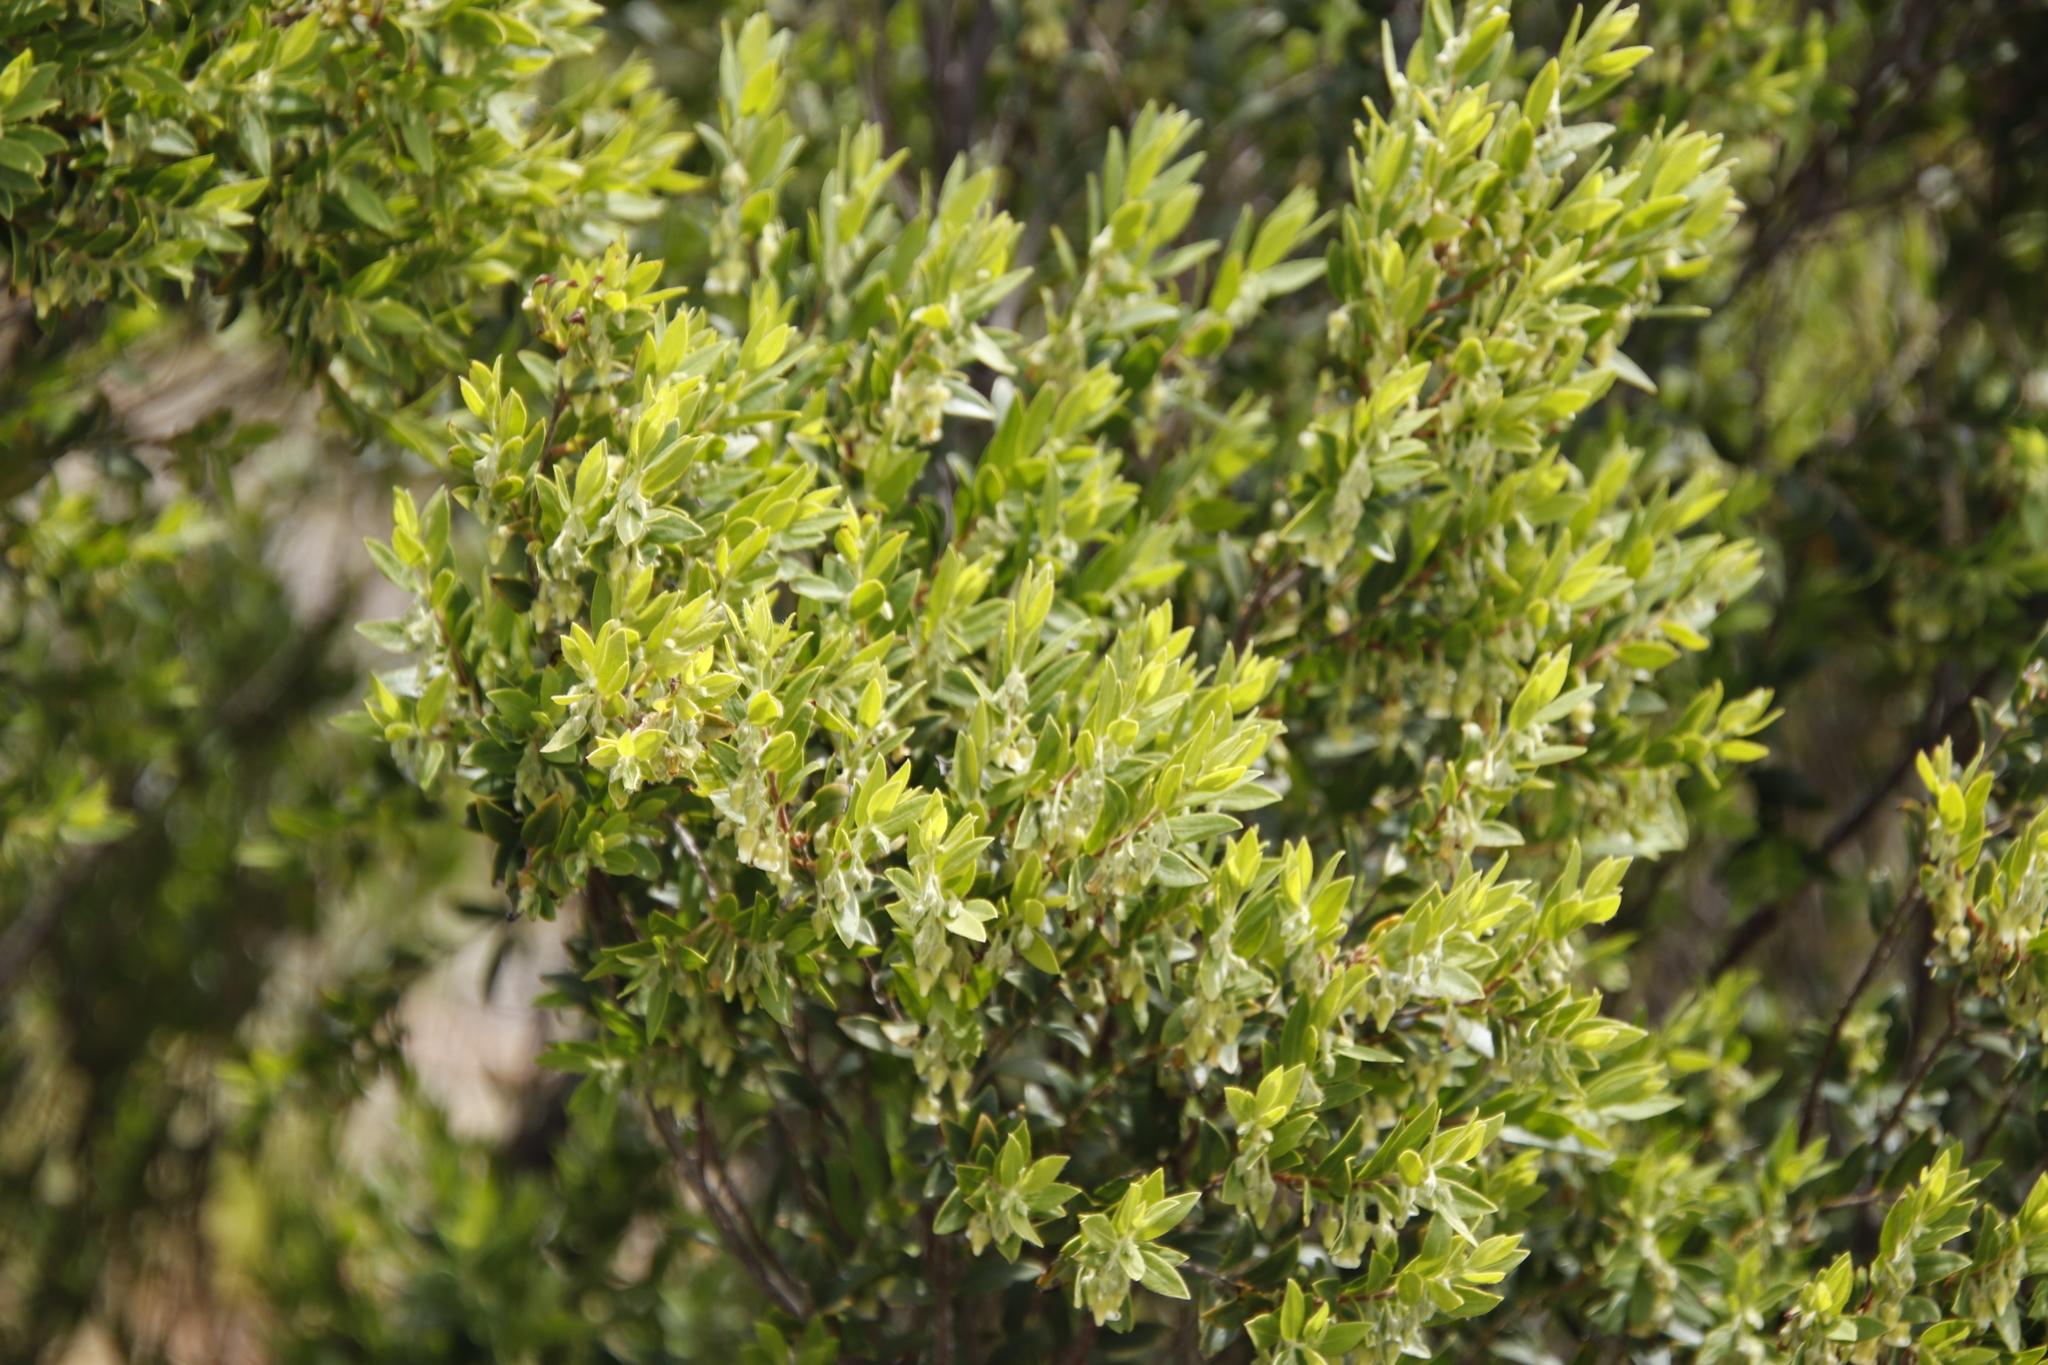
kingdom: Plantae
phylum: Tracheophyta
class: Magnoliopsida
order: Ericales
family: Ebenaceae
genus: Diospyros
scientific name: Diospyros glabra
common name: Fynbos star apple
